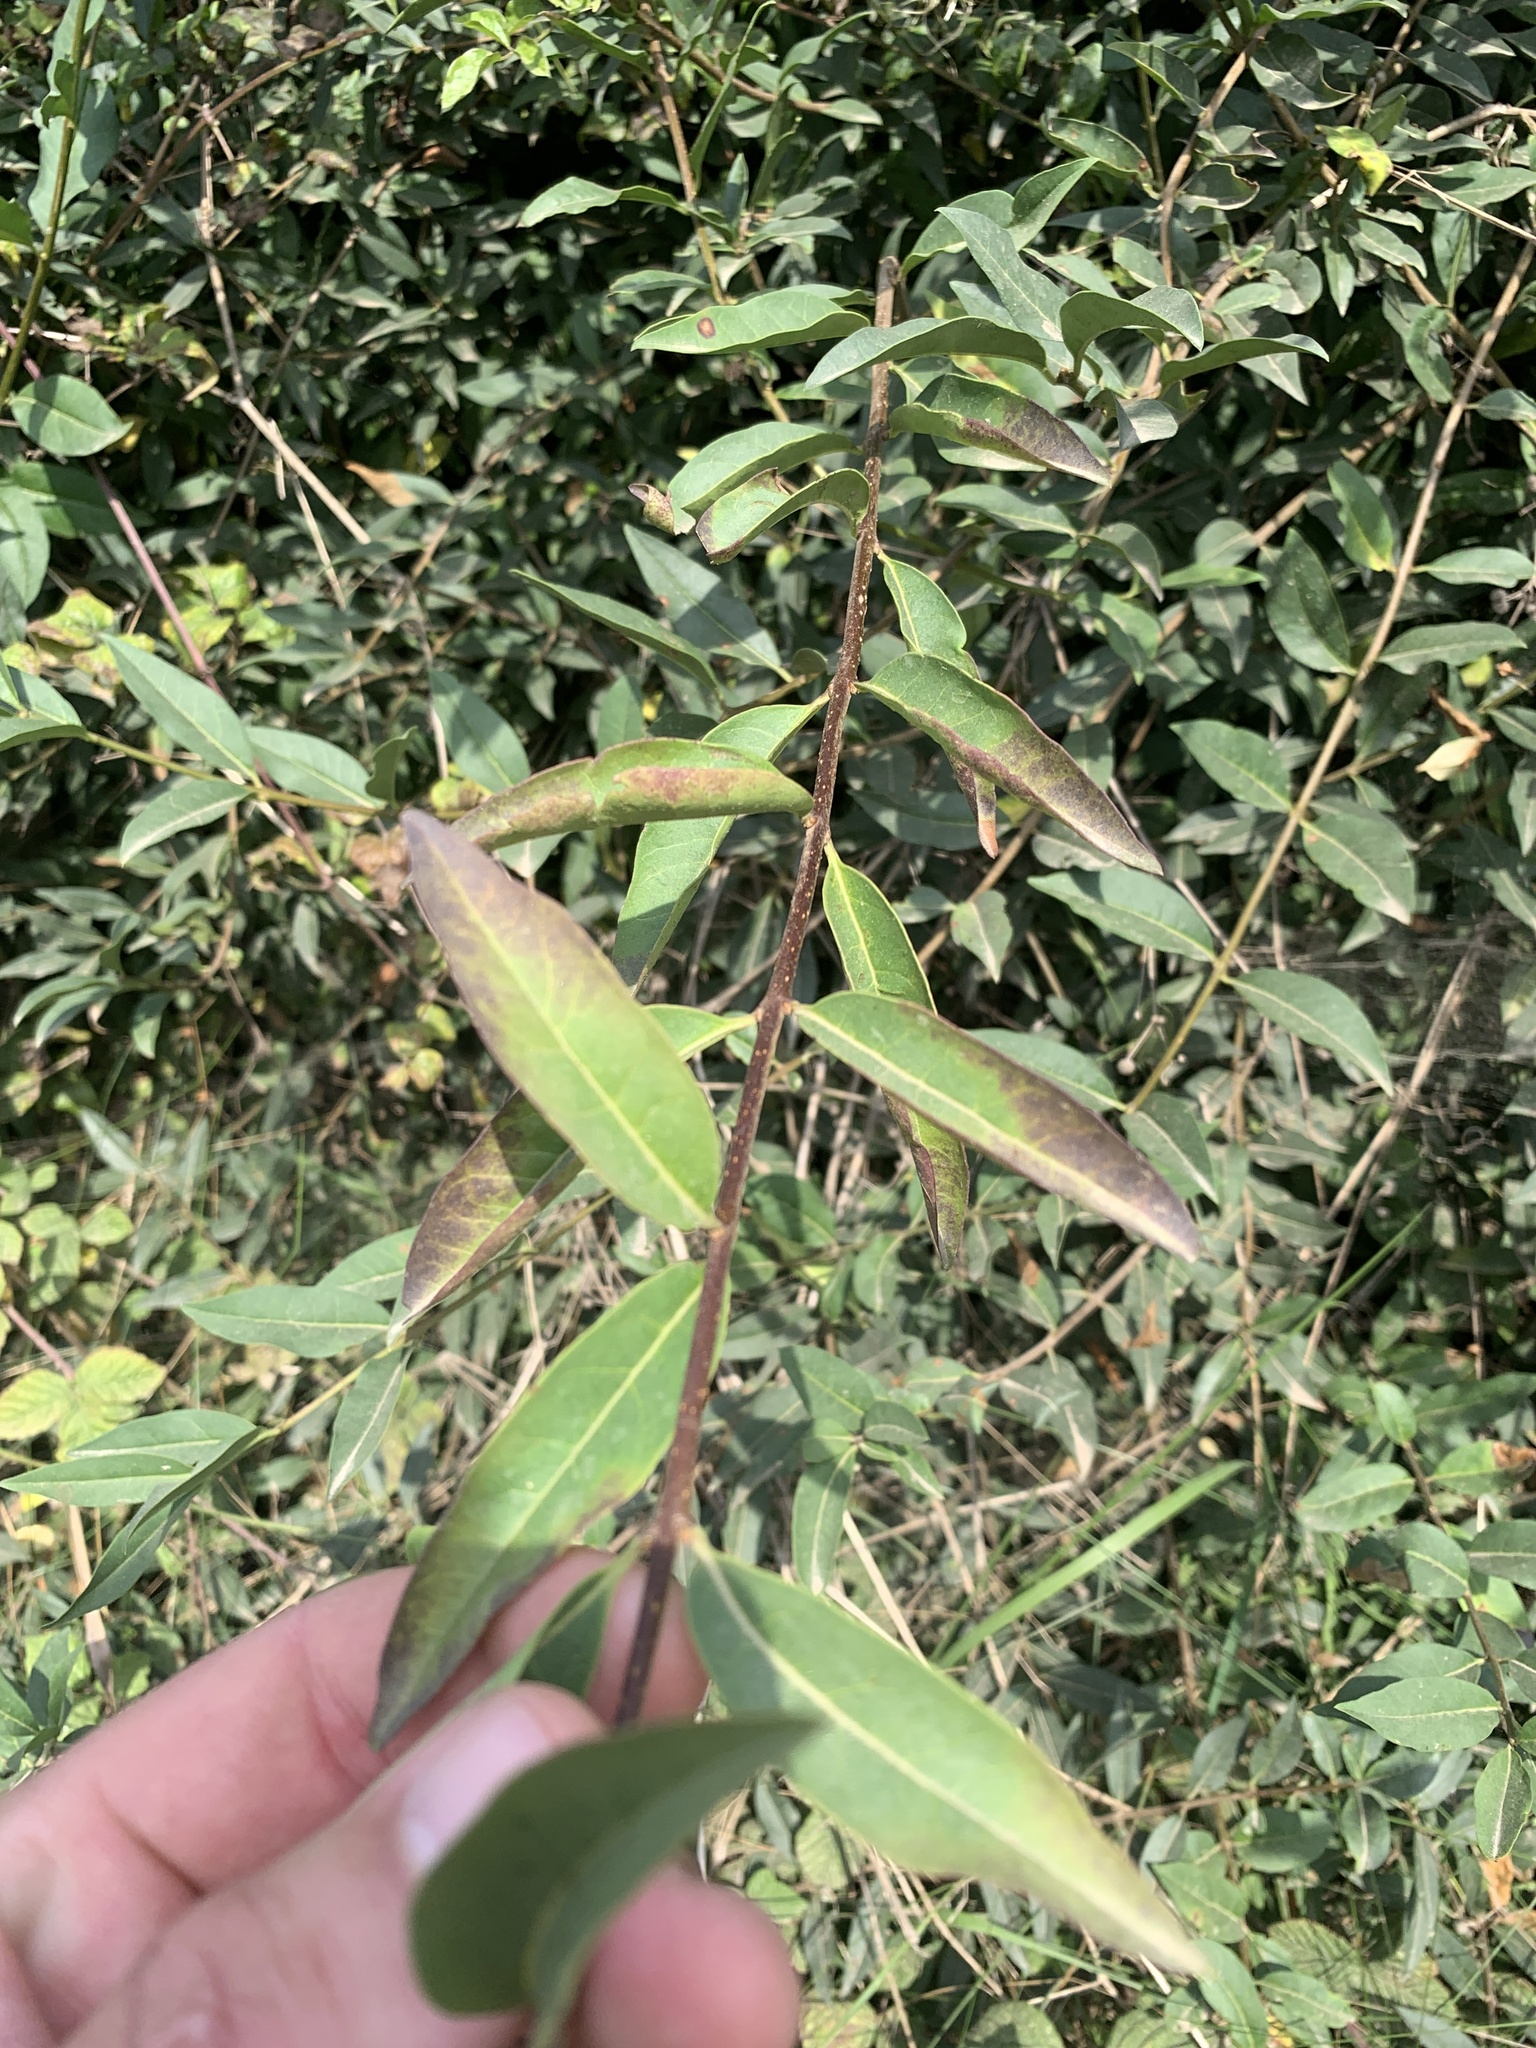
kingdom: Plantae
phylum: Tracheophyta
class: Magnoliopsida
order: Malpighiales
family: Salicaceae
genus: Salix
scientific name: Salix cinerea
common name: Common sallow
